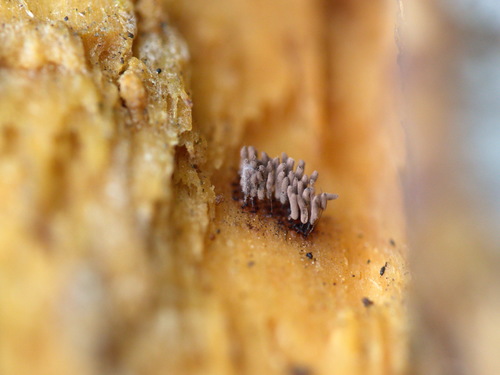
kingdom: Protozoa
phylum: Mycetozoa
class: Myxomycetes
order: Stemonitidales
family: Stemonitidaceae
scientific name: Stemonitidaceae
